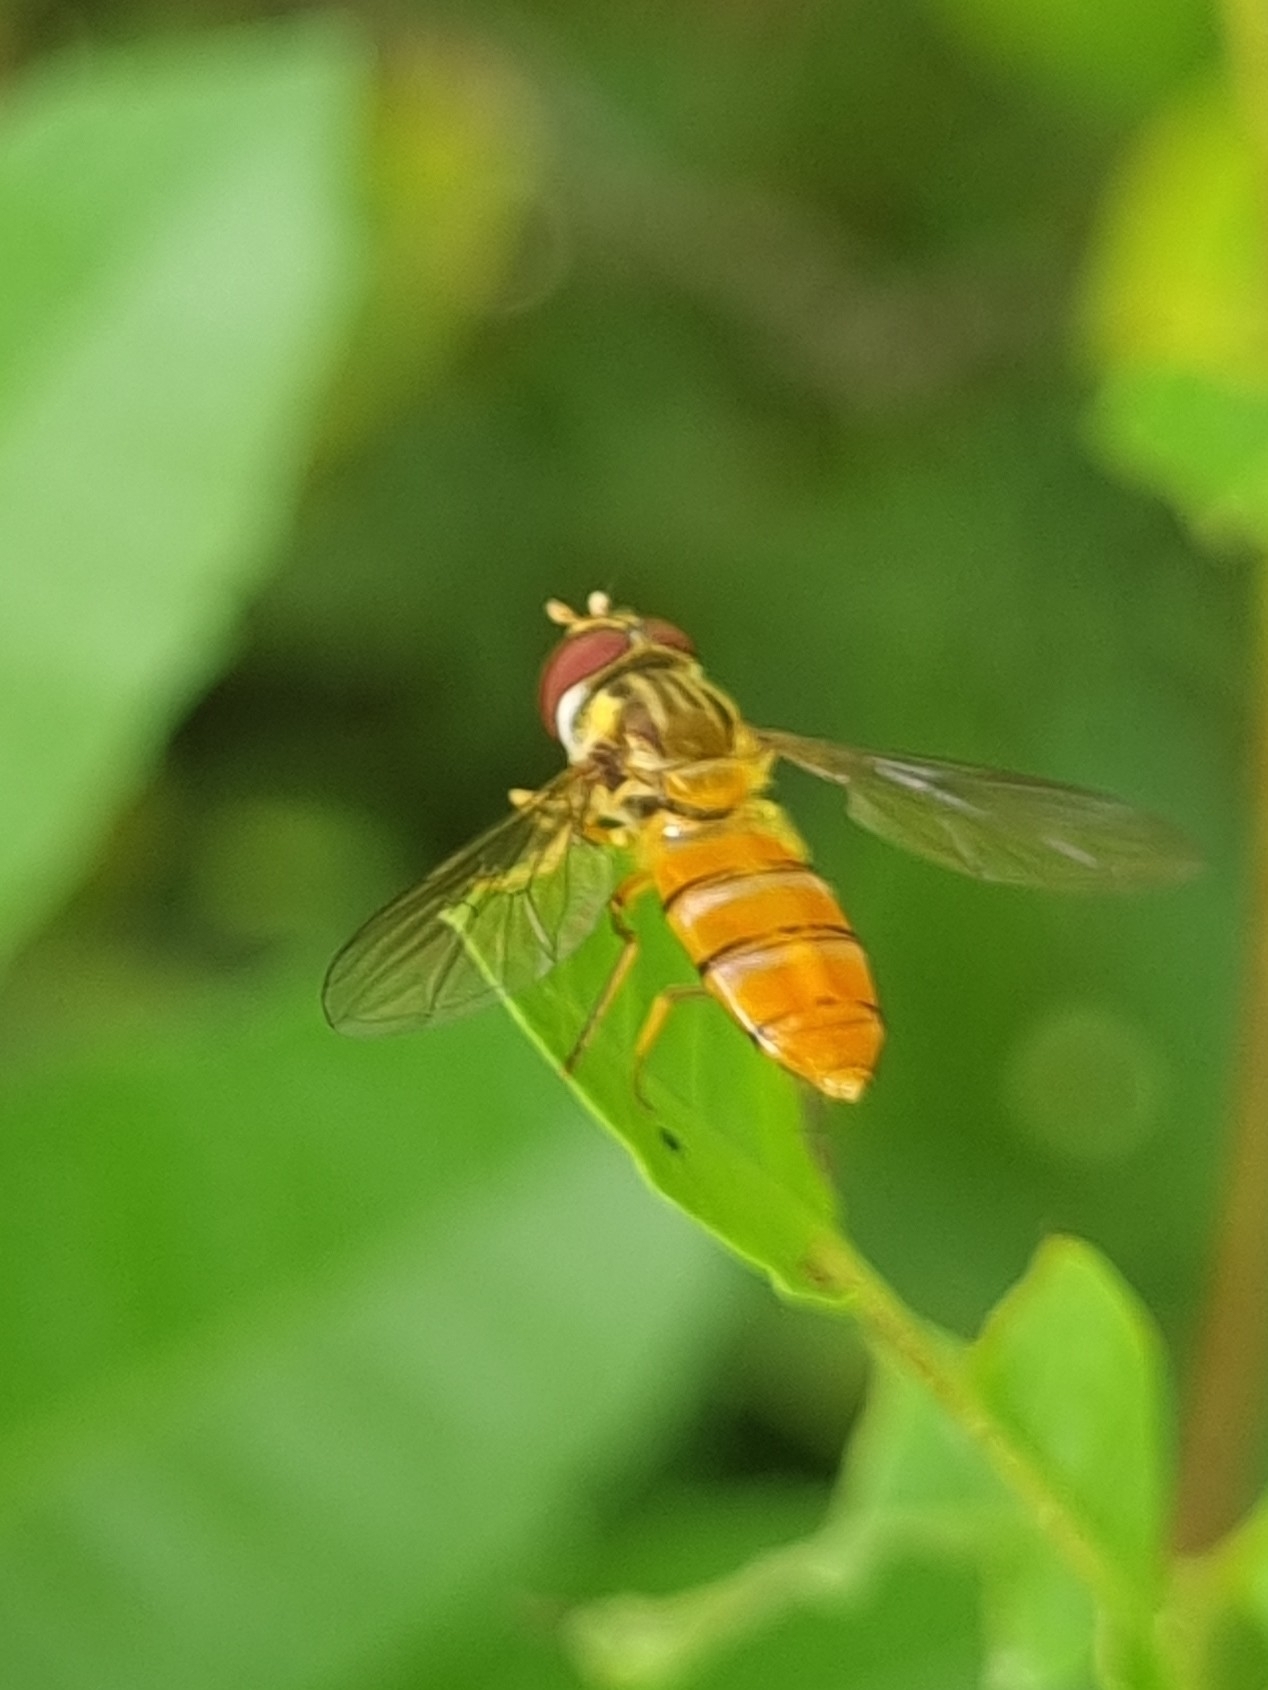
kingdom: Animalia
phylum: Arthropoda
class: Insecta
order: Diptera
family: Syrphidae
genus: Episyrphus
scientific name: Episyrphus viridaureus
